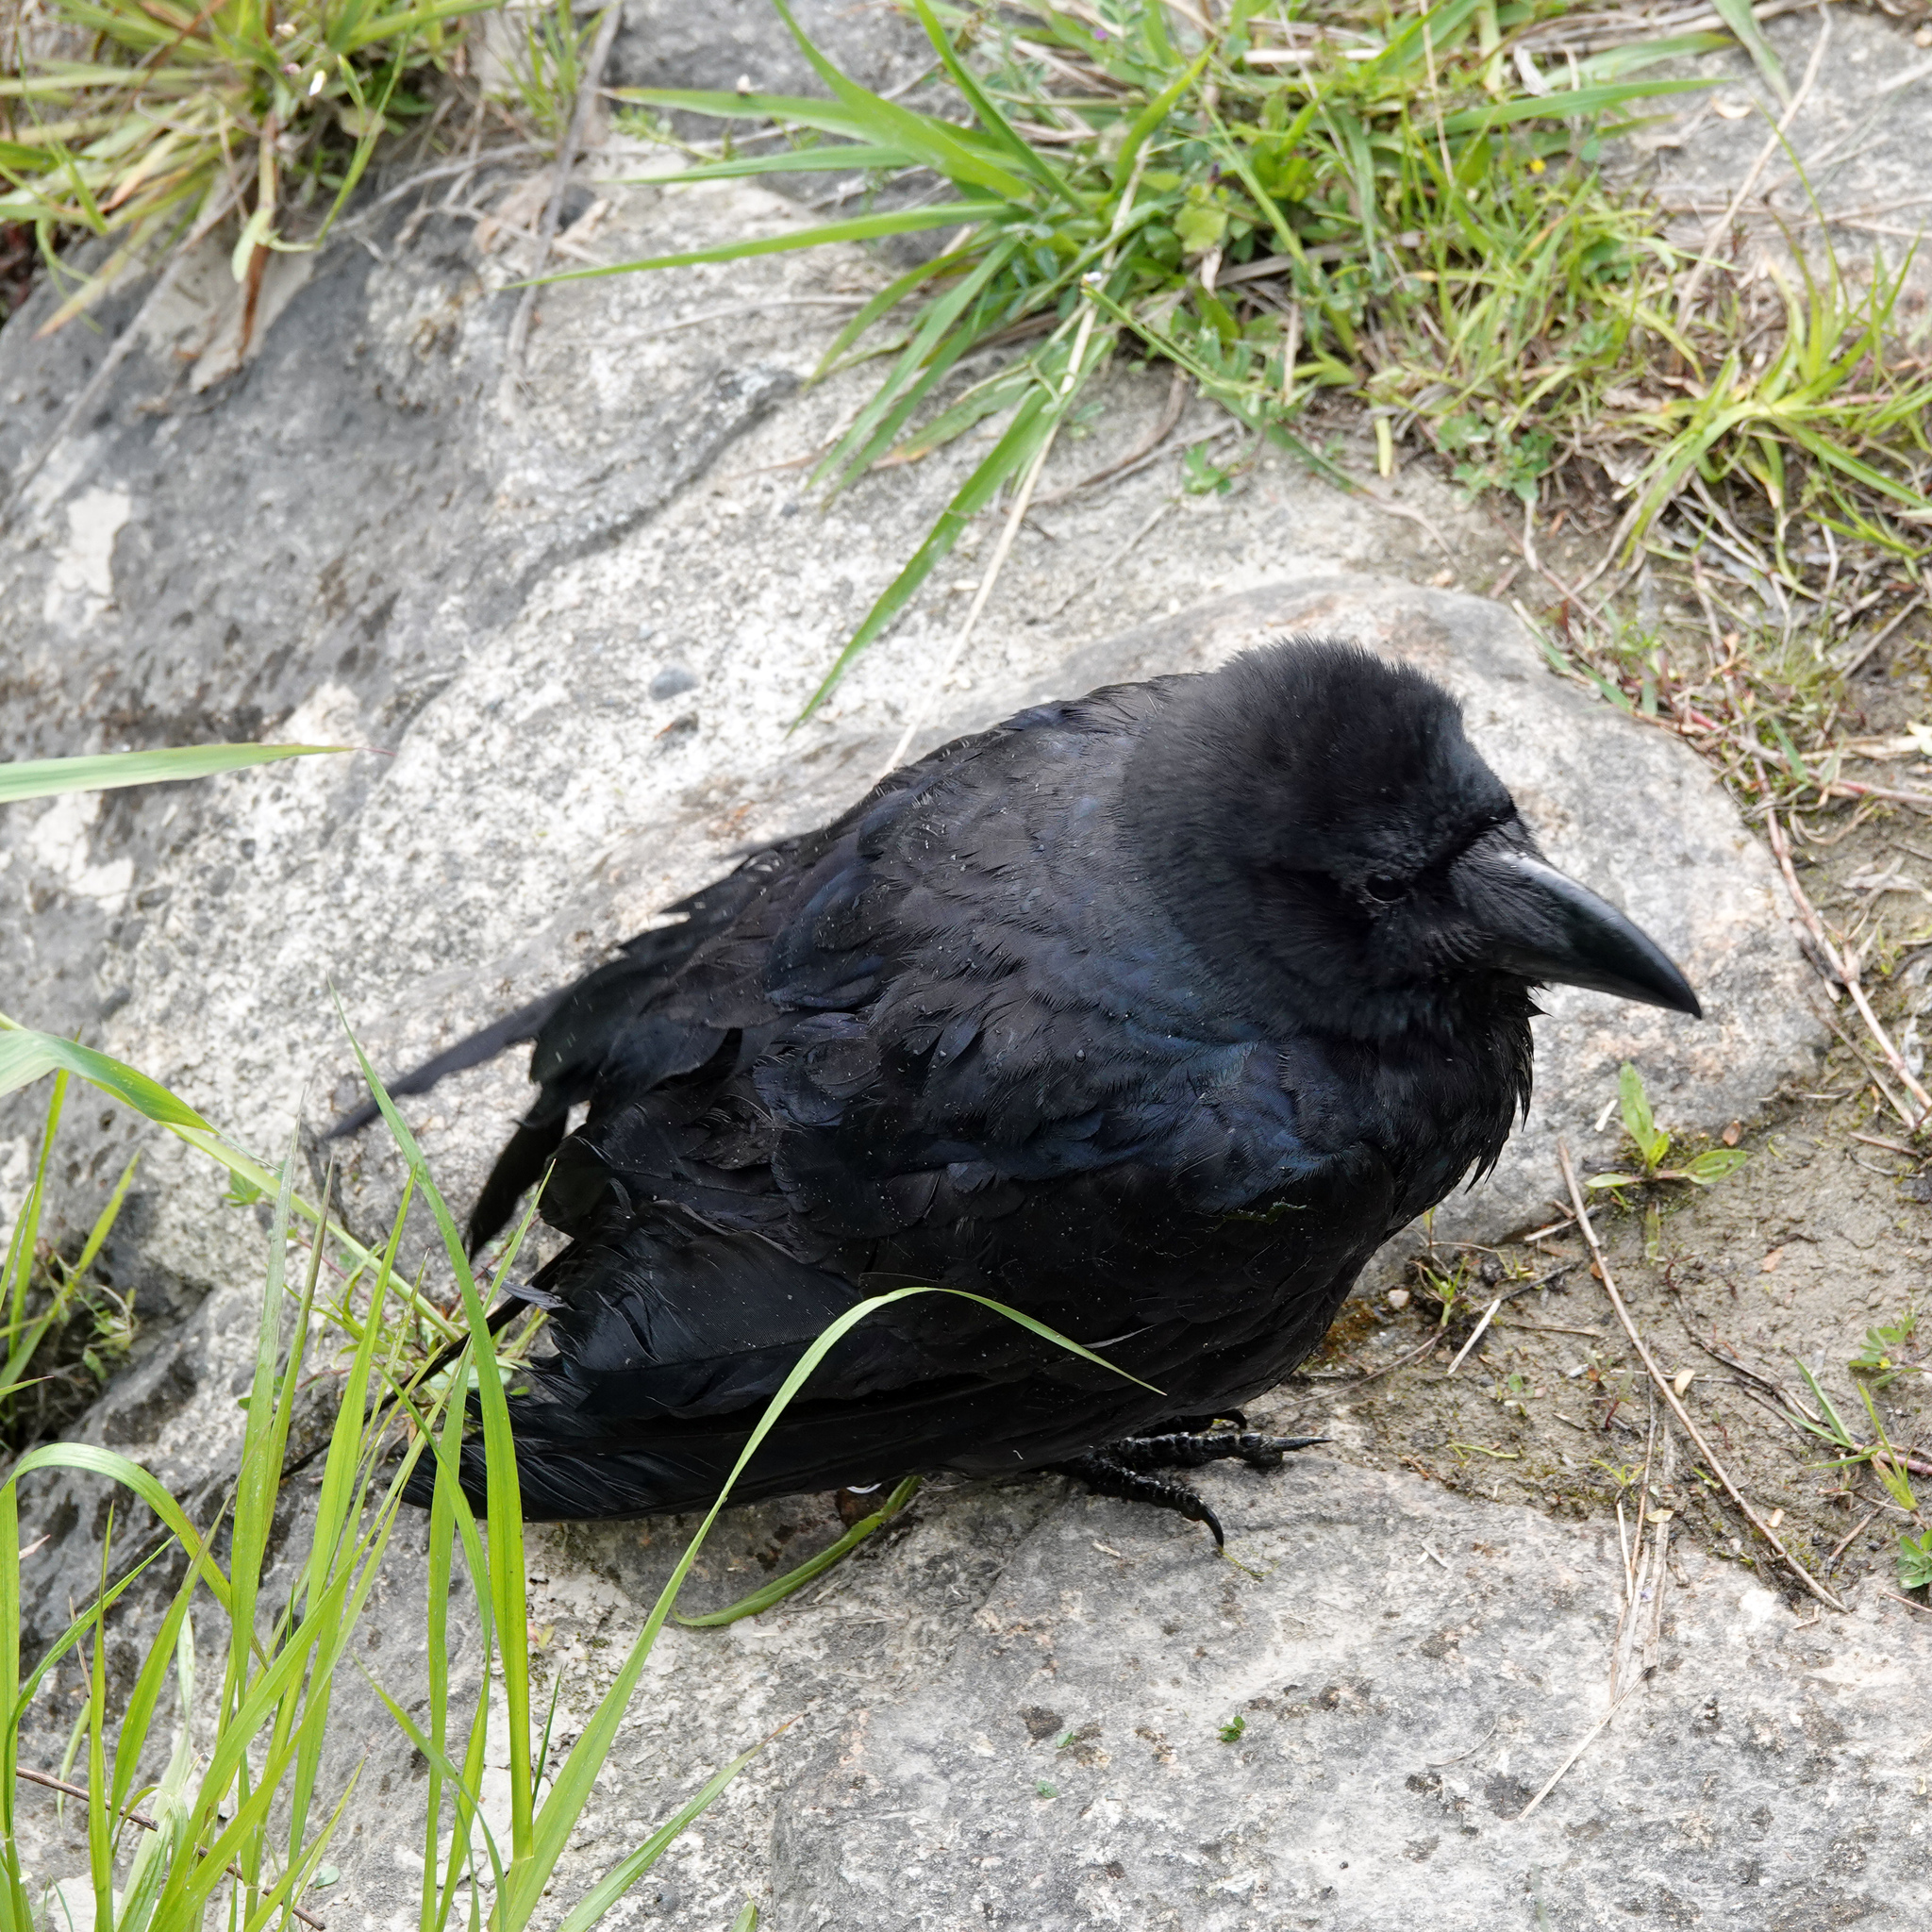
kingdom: Animalia
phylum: Chordata
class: Aves
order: Passeriformes
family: Corvidae
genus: Corvus
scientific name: Corvus macrorhynchos
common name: Large-billed crow
